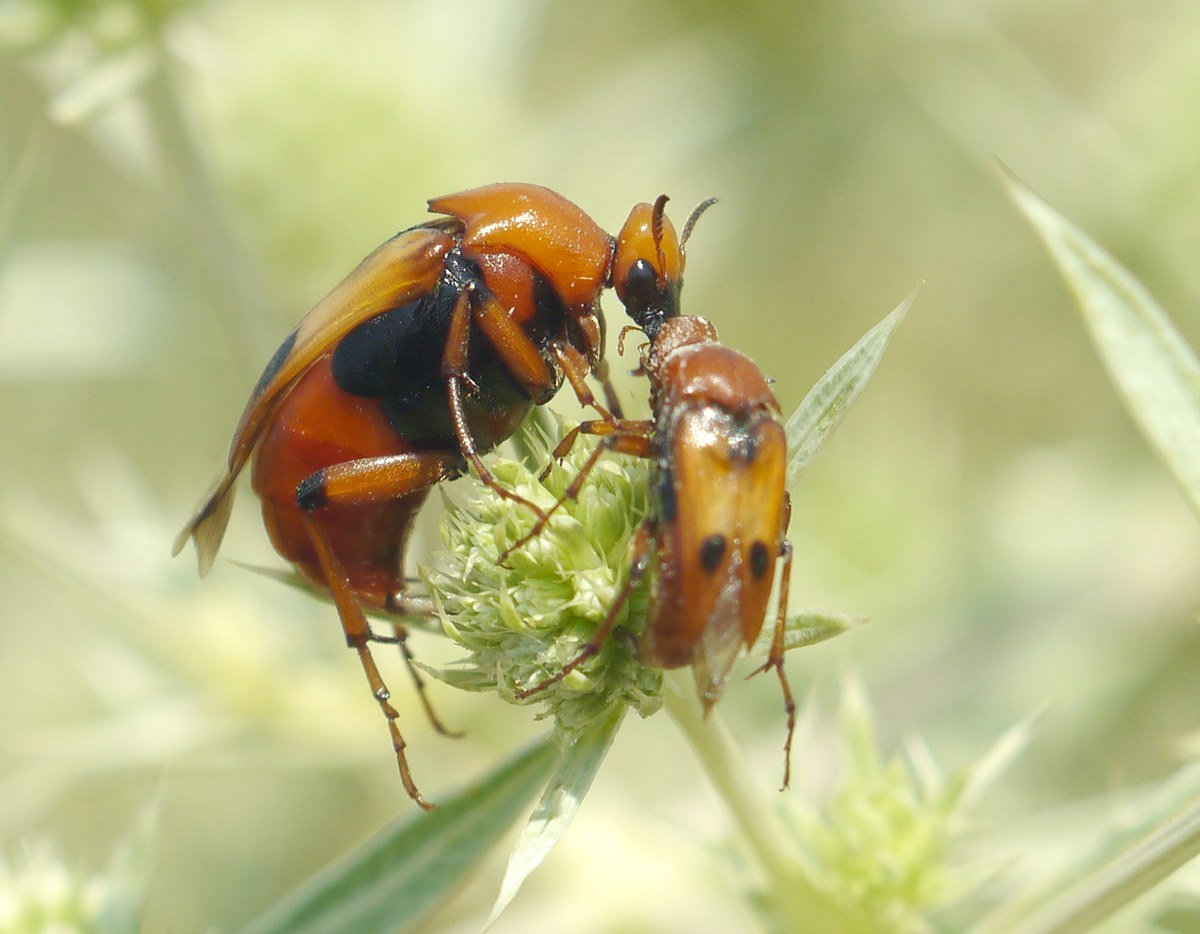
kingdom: Animalia
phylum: Arthropoda
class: Insecta
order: Coleoptera
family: Ripiphoridae
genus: Macrosiagon
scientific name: Macrosiagon bimaculata
